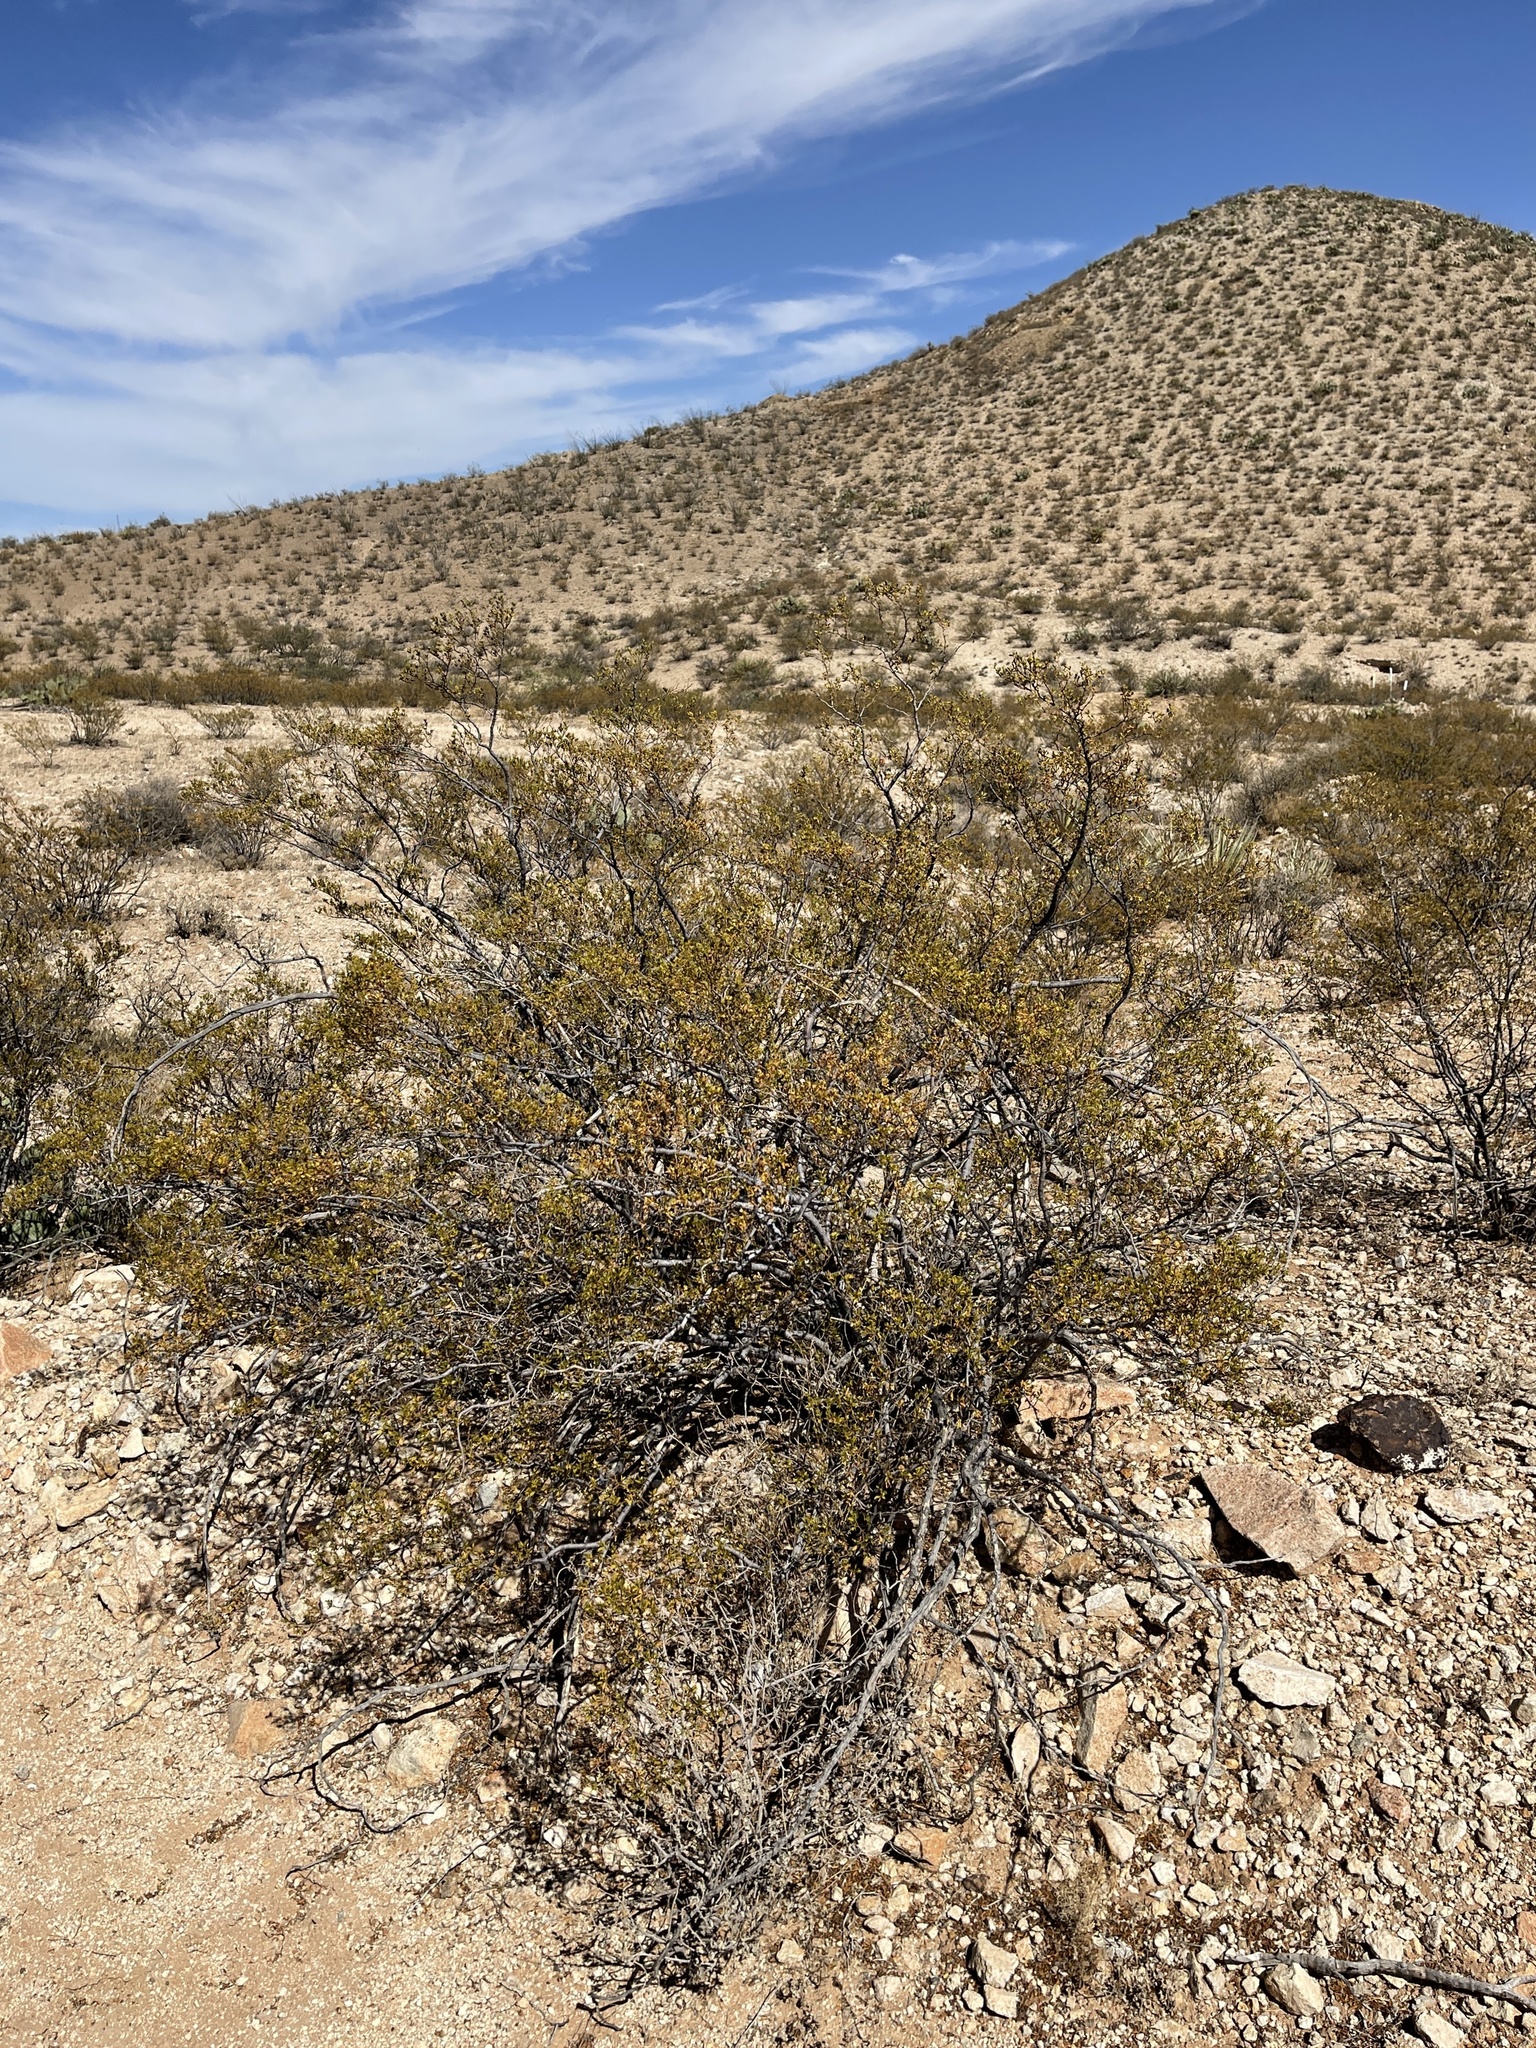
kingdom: Plantae
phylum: Tracheophyta
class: Magnoliopsida
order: Zygophyllales
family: Zygophyllaceae
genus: Larrea
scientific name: Larrea tridentata
